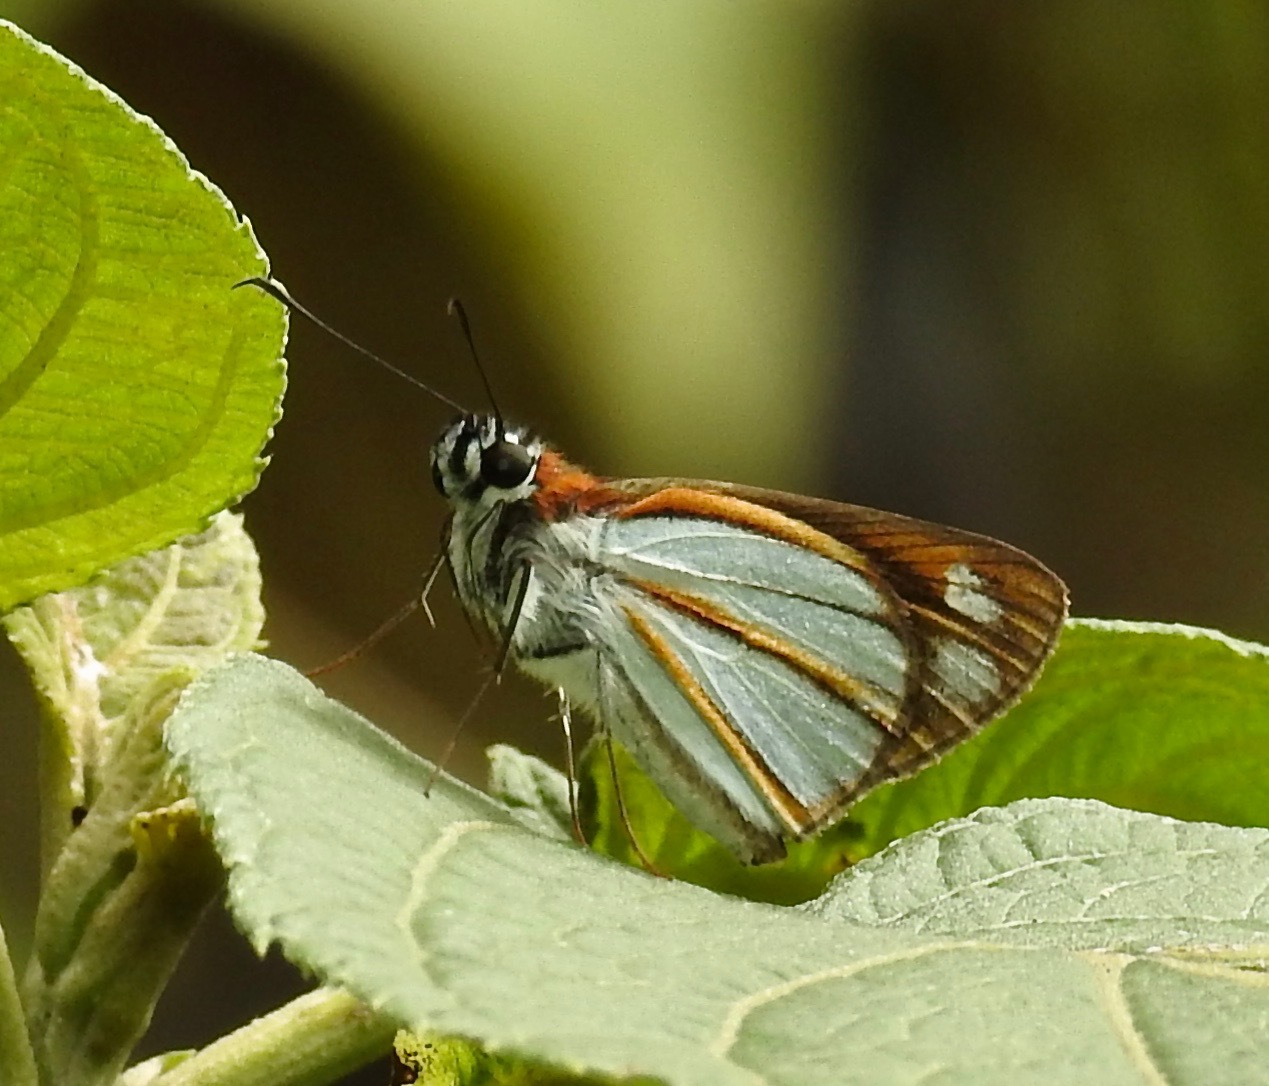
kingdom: Animalia
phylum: Arthropoda
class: Insecta
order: Lepidoptera
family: Hesperiidae
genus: Corra
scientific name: Corra
